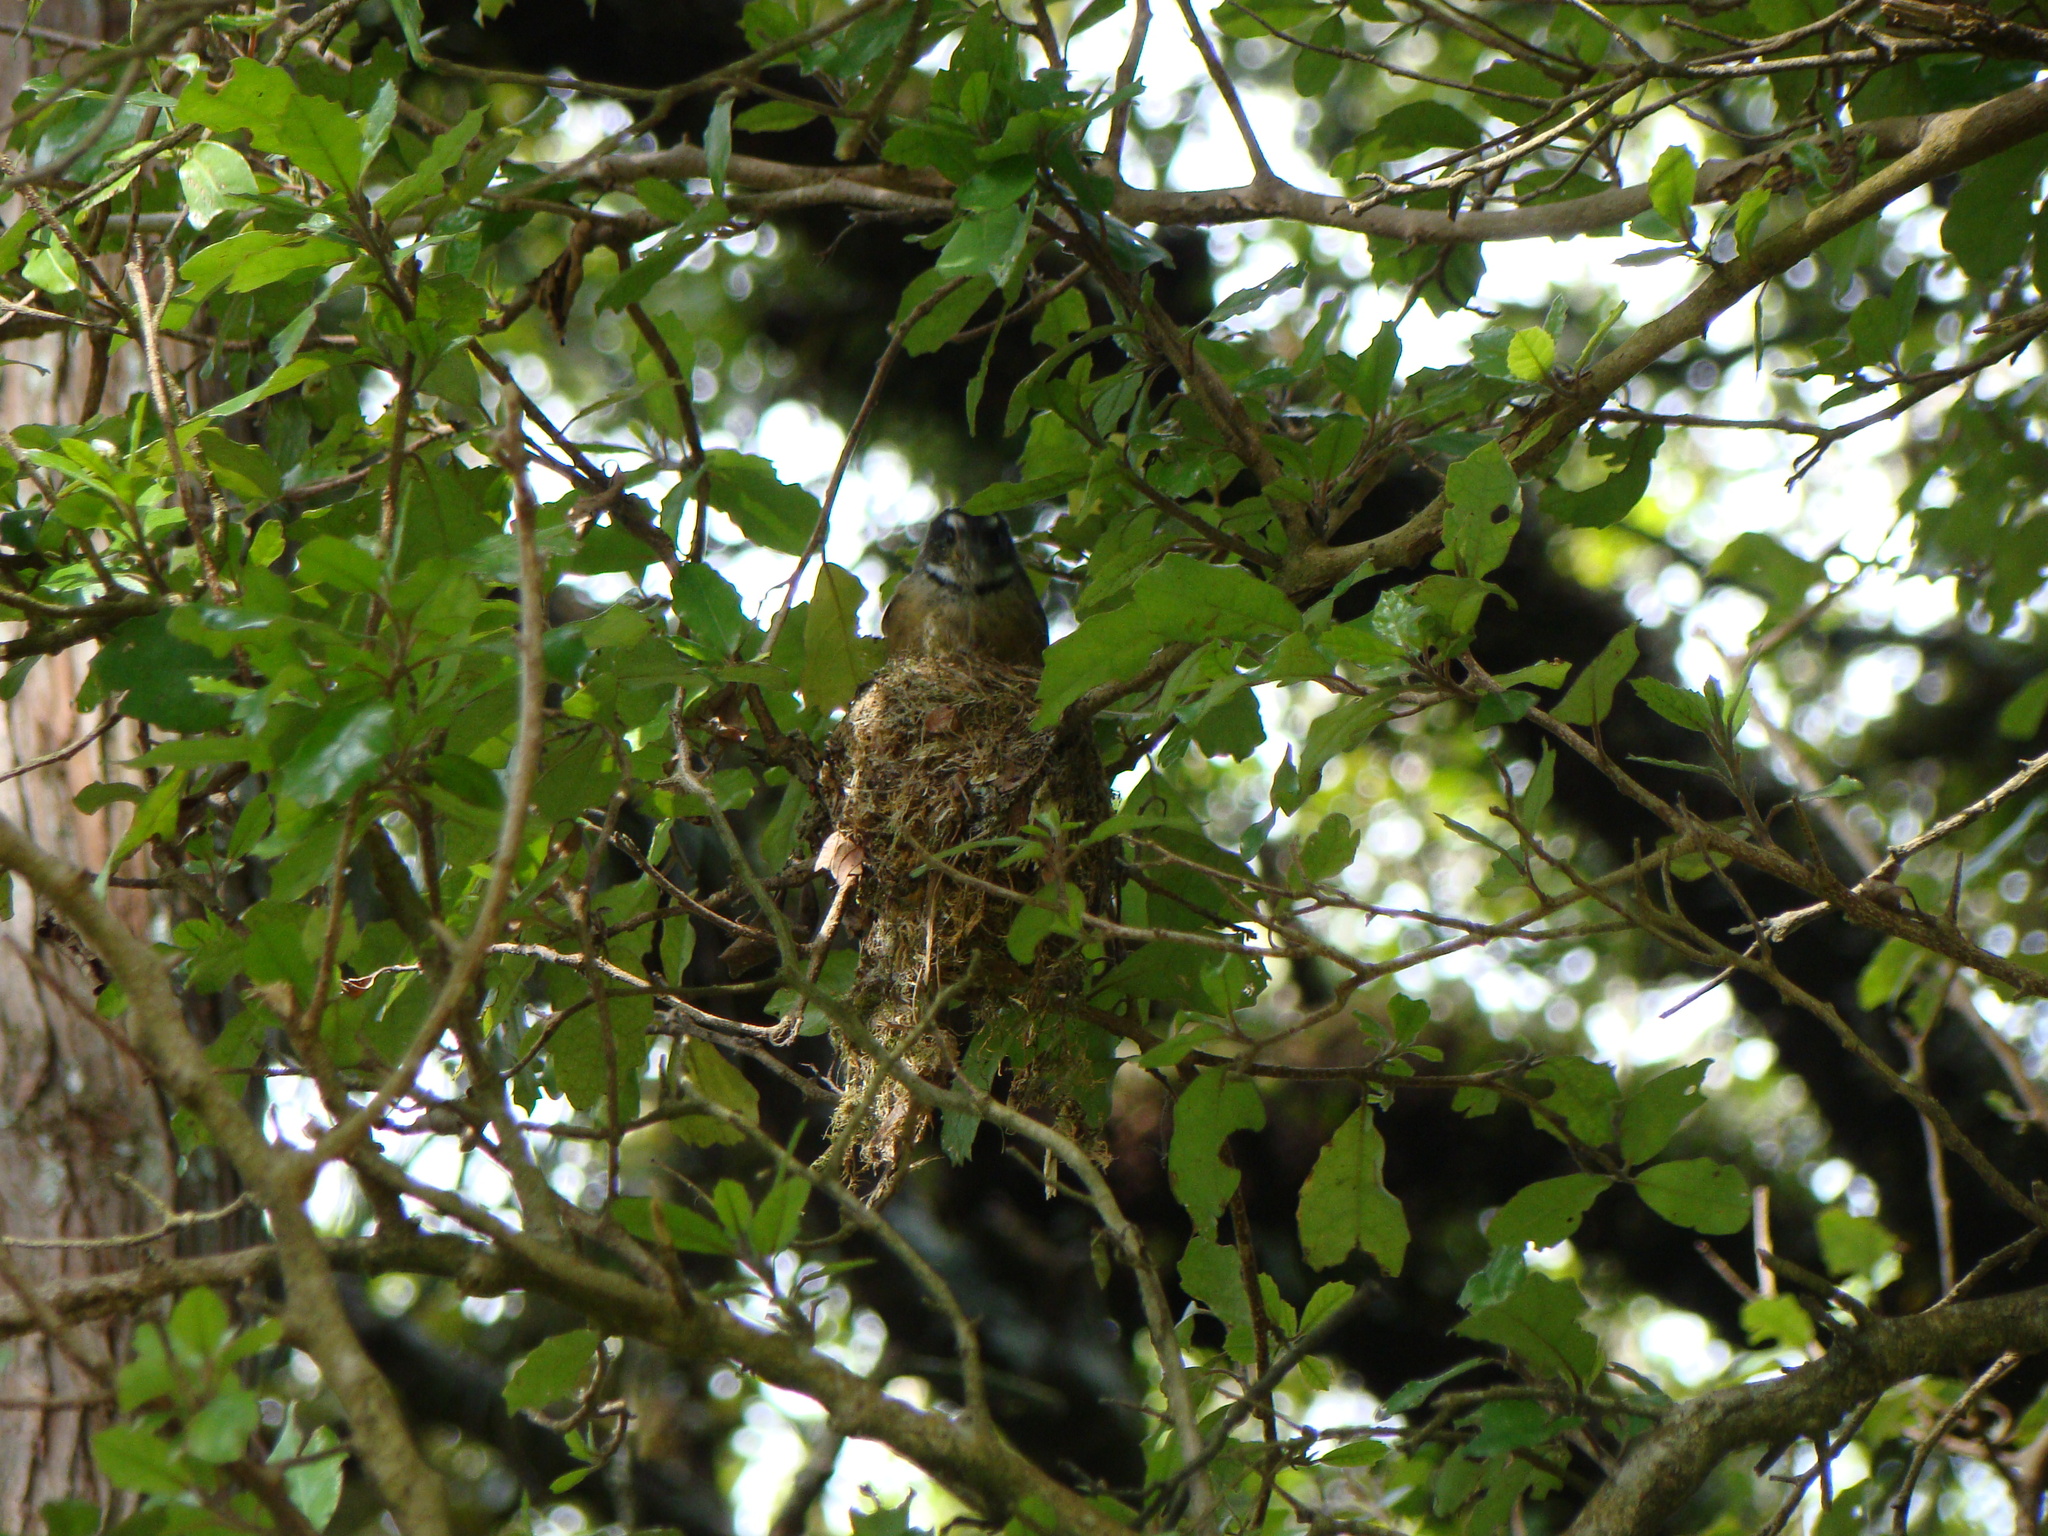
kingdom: Animalia
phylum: Chordata
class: Aves
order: Passeriformes
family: Rhipiduridae
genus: Rhipidura
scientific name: Rhipidura fuliginosa
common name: New zealand fantail
